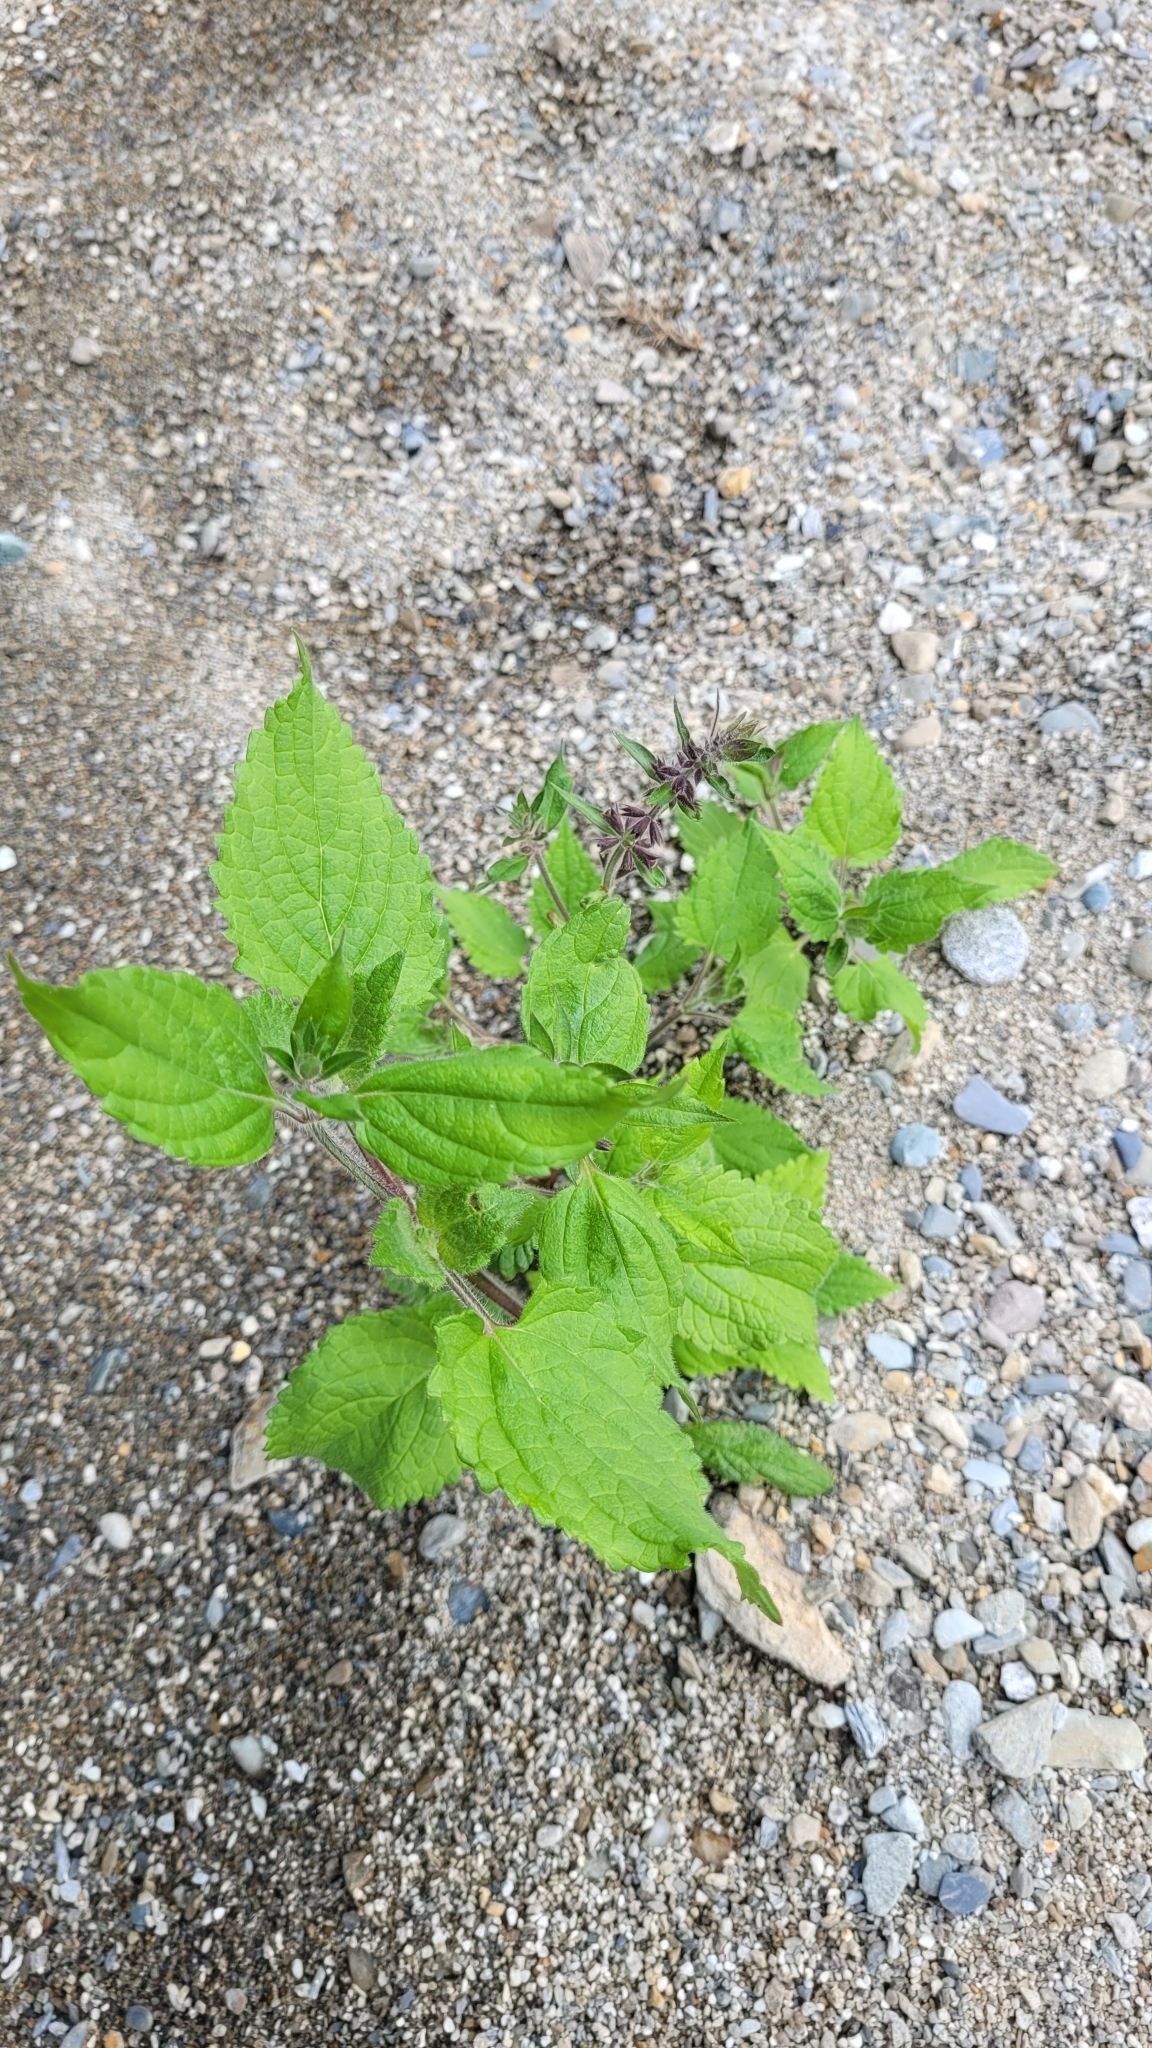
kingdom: Plantae
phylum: Tracheophyta
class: Magnoliopsida
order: Lamiales
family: Lamiaceae
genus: Stachys
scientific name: Stachys sylvatica
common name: Hedge woundwort
